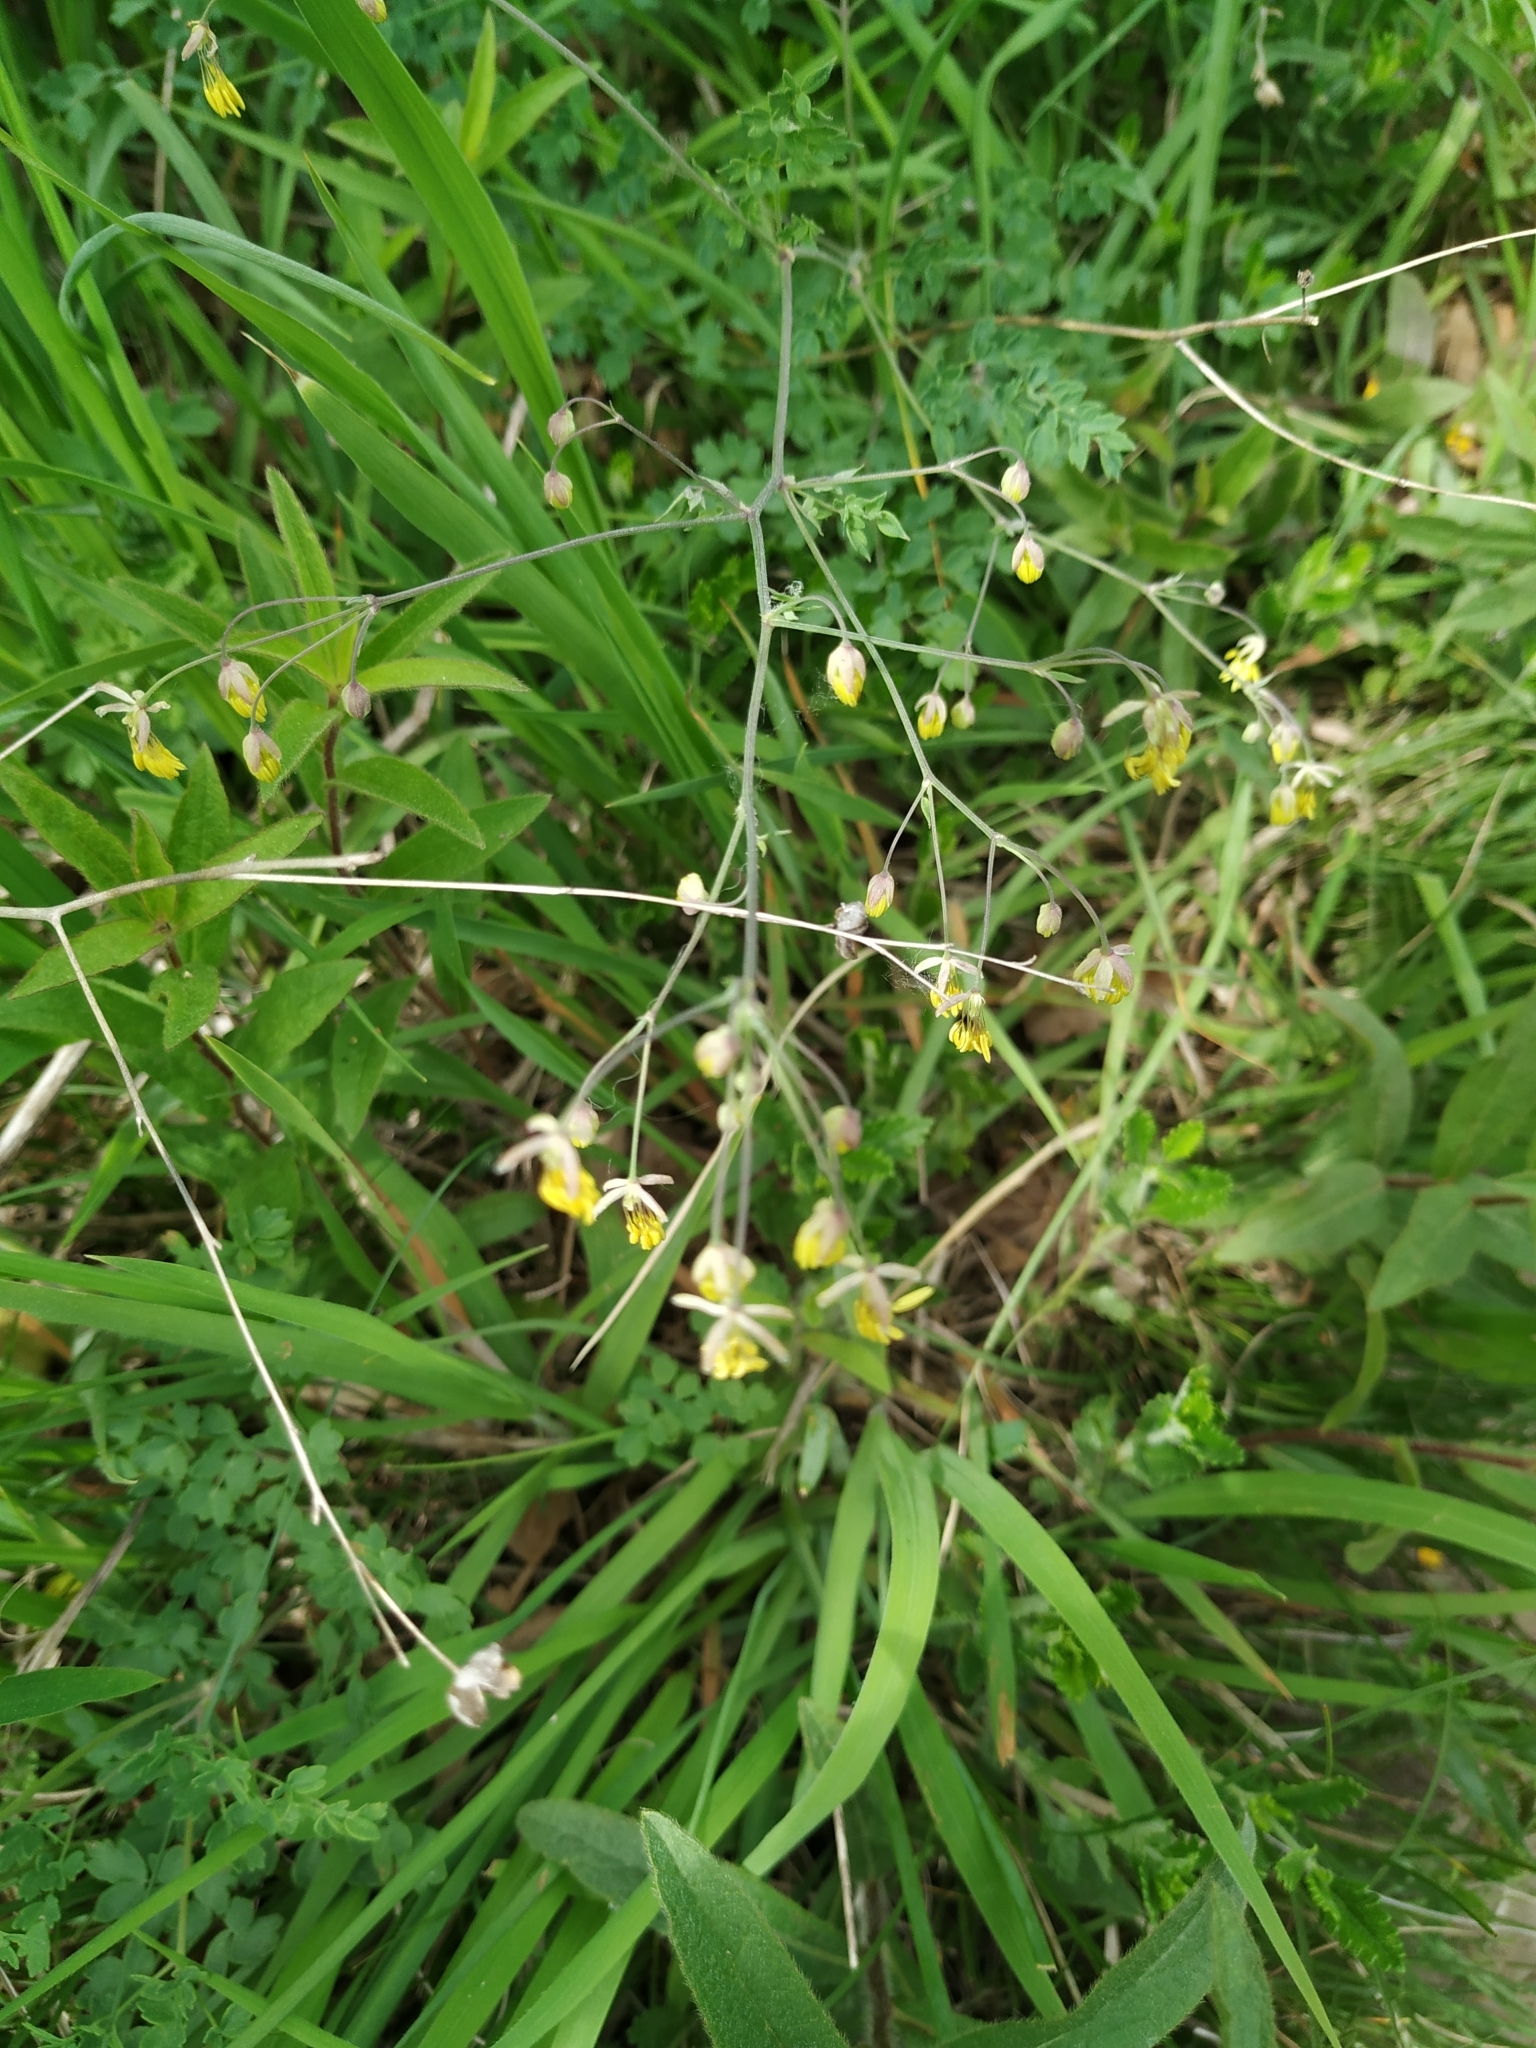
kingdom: Plantae
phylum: Tracheophyta
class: Magnoliopsida
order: Ranunculales
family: Ranunculaceae
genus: Thalictrum
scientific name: Thalictrum minus
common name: Lesser meadow-rue
